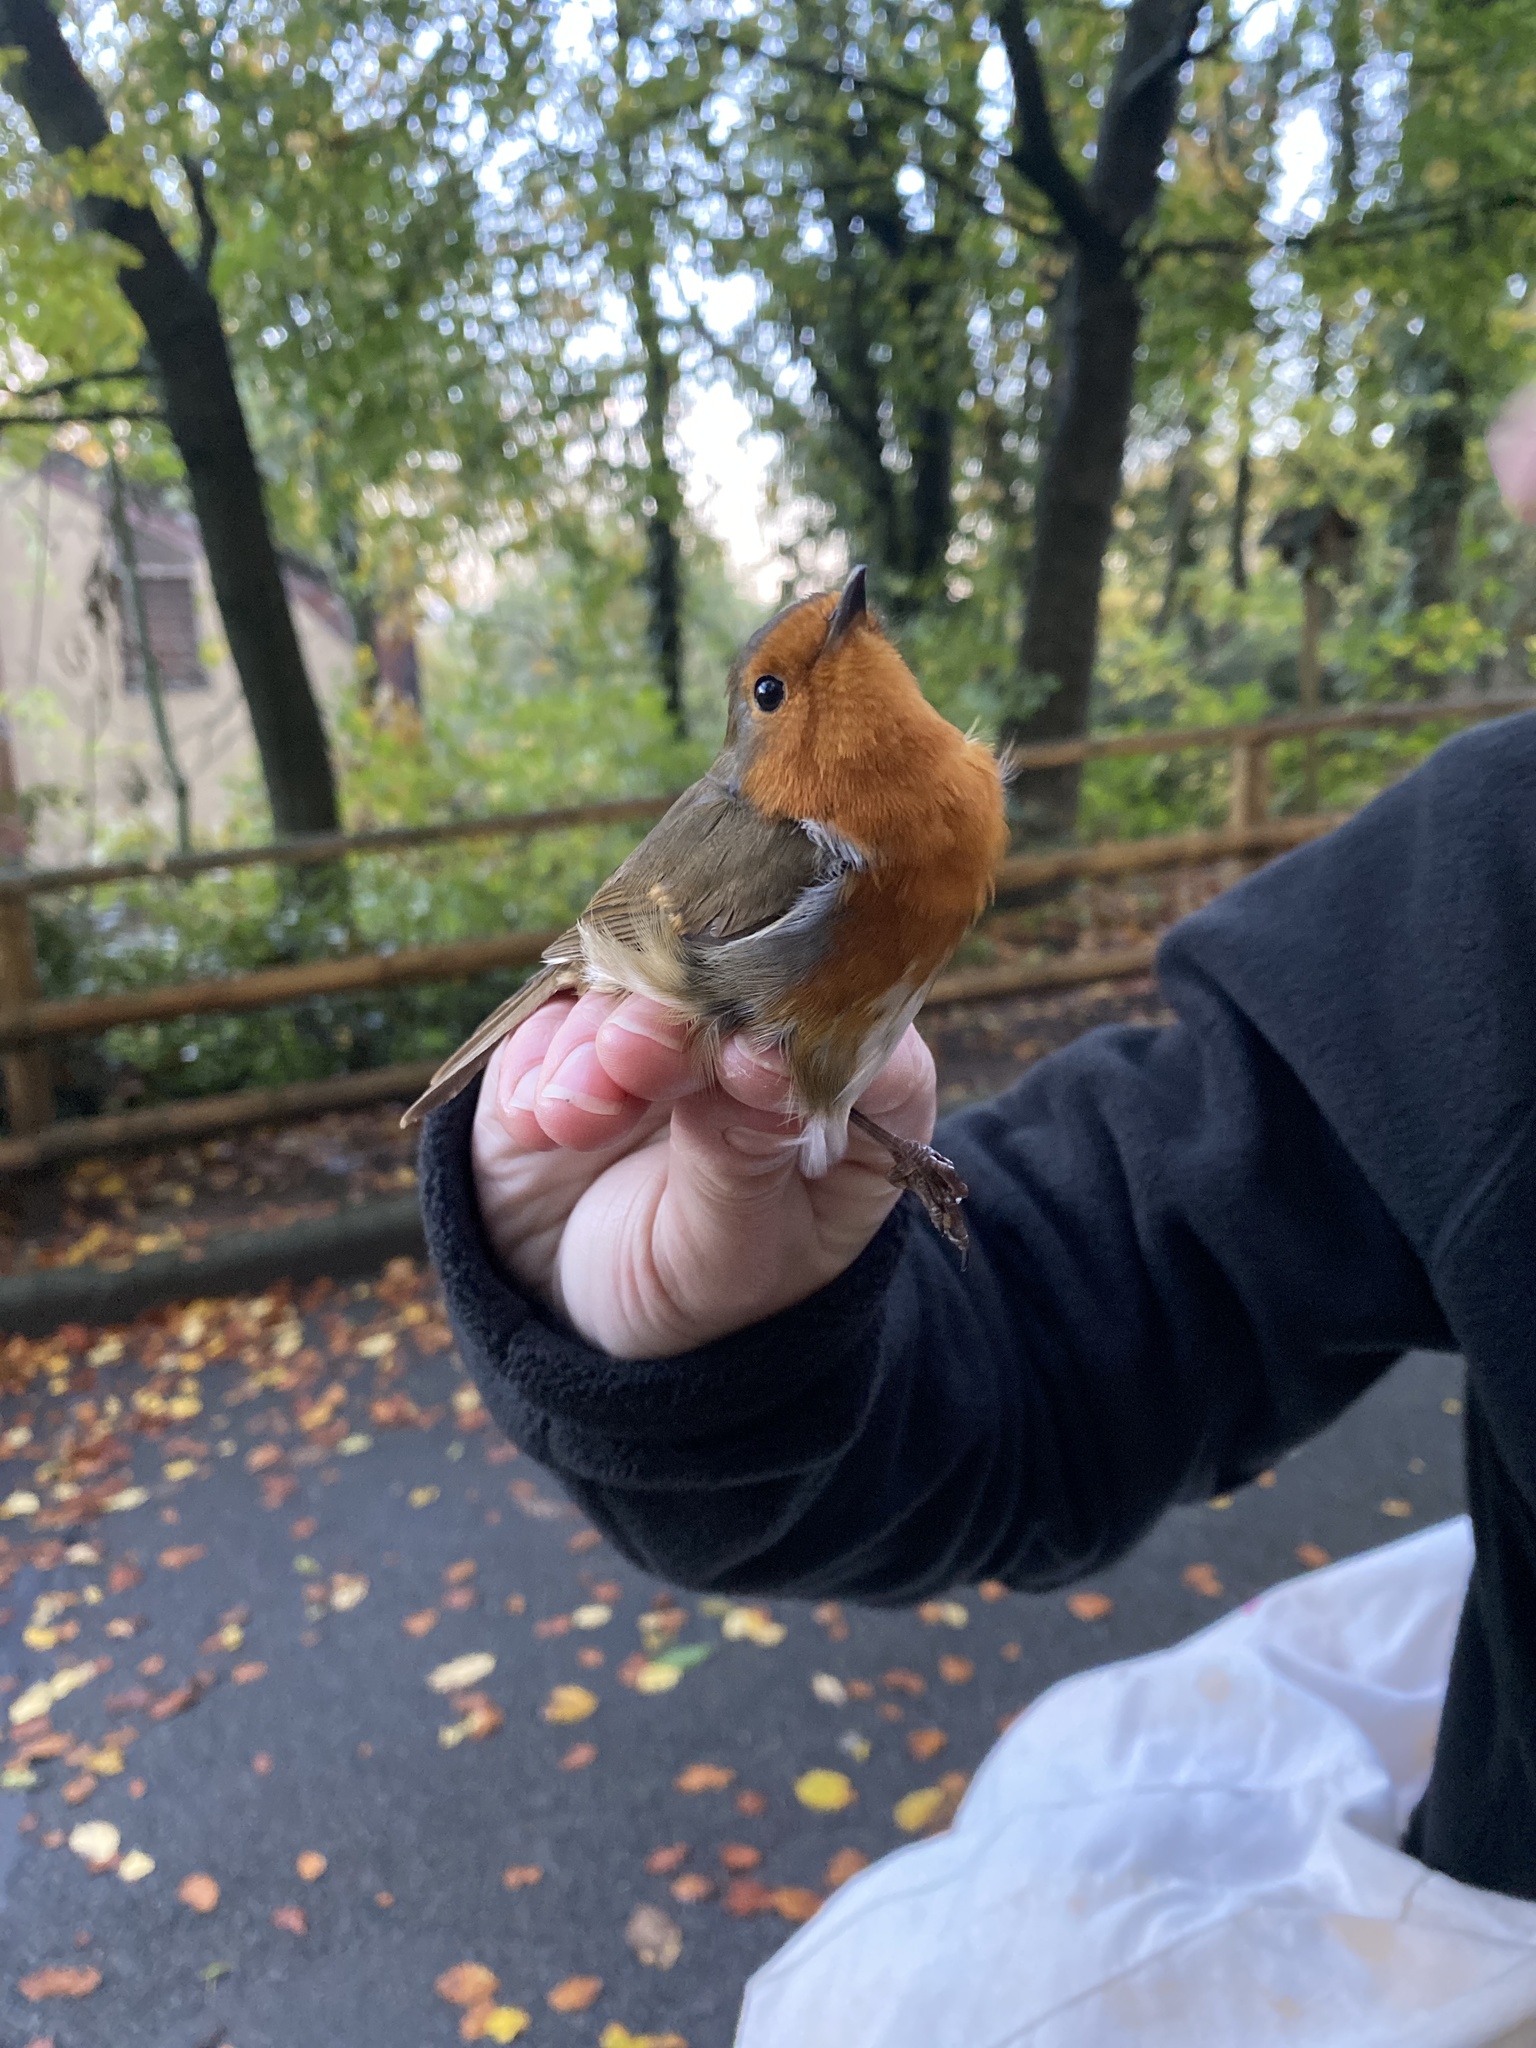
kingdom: Animalia
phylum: Chordata
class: Aves
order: Passeriformes
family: Muscicapidae
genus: Erithacus
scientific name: Erithacus rubecula
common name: European robin
